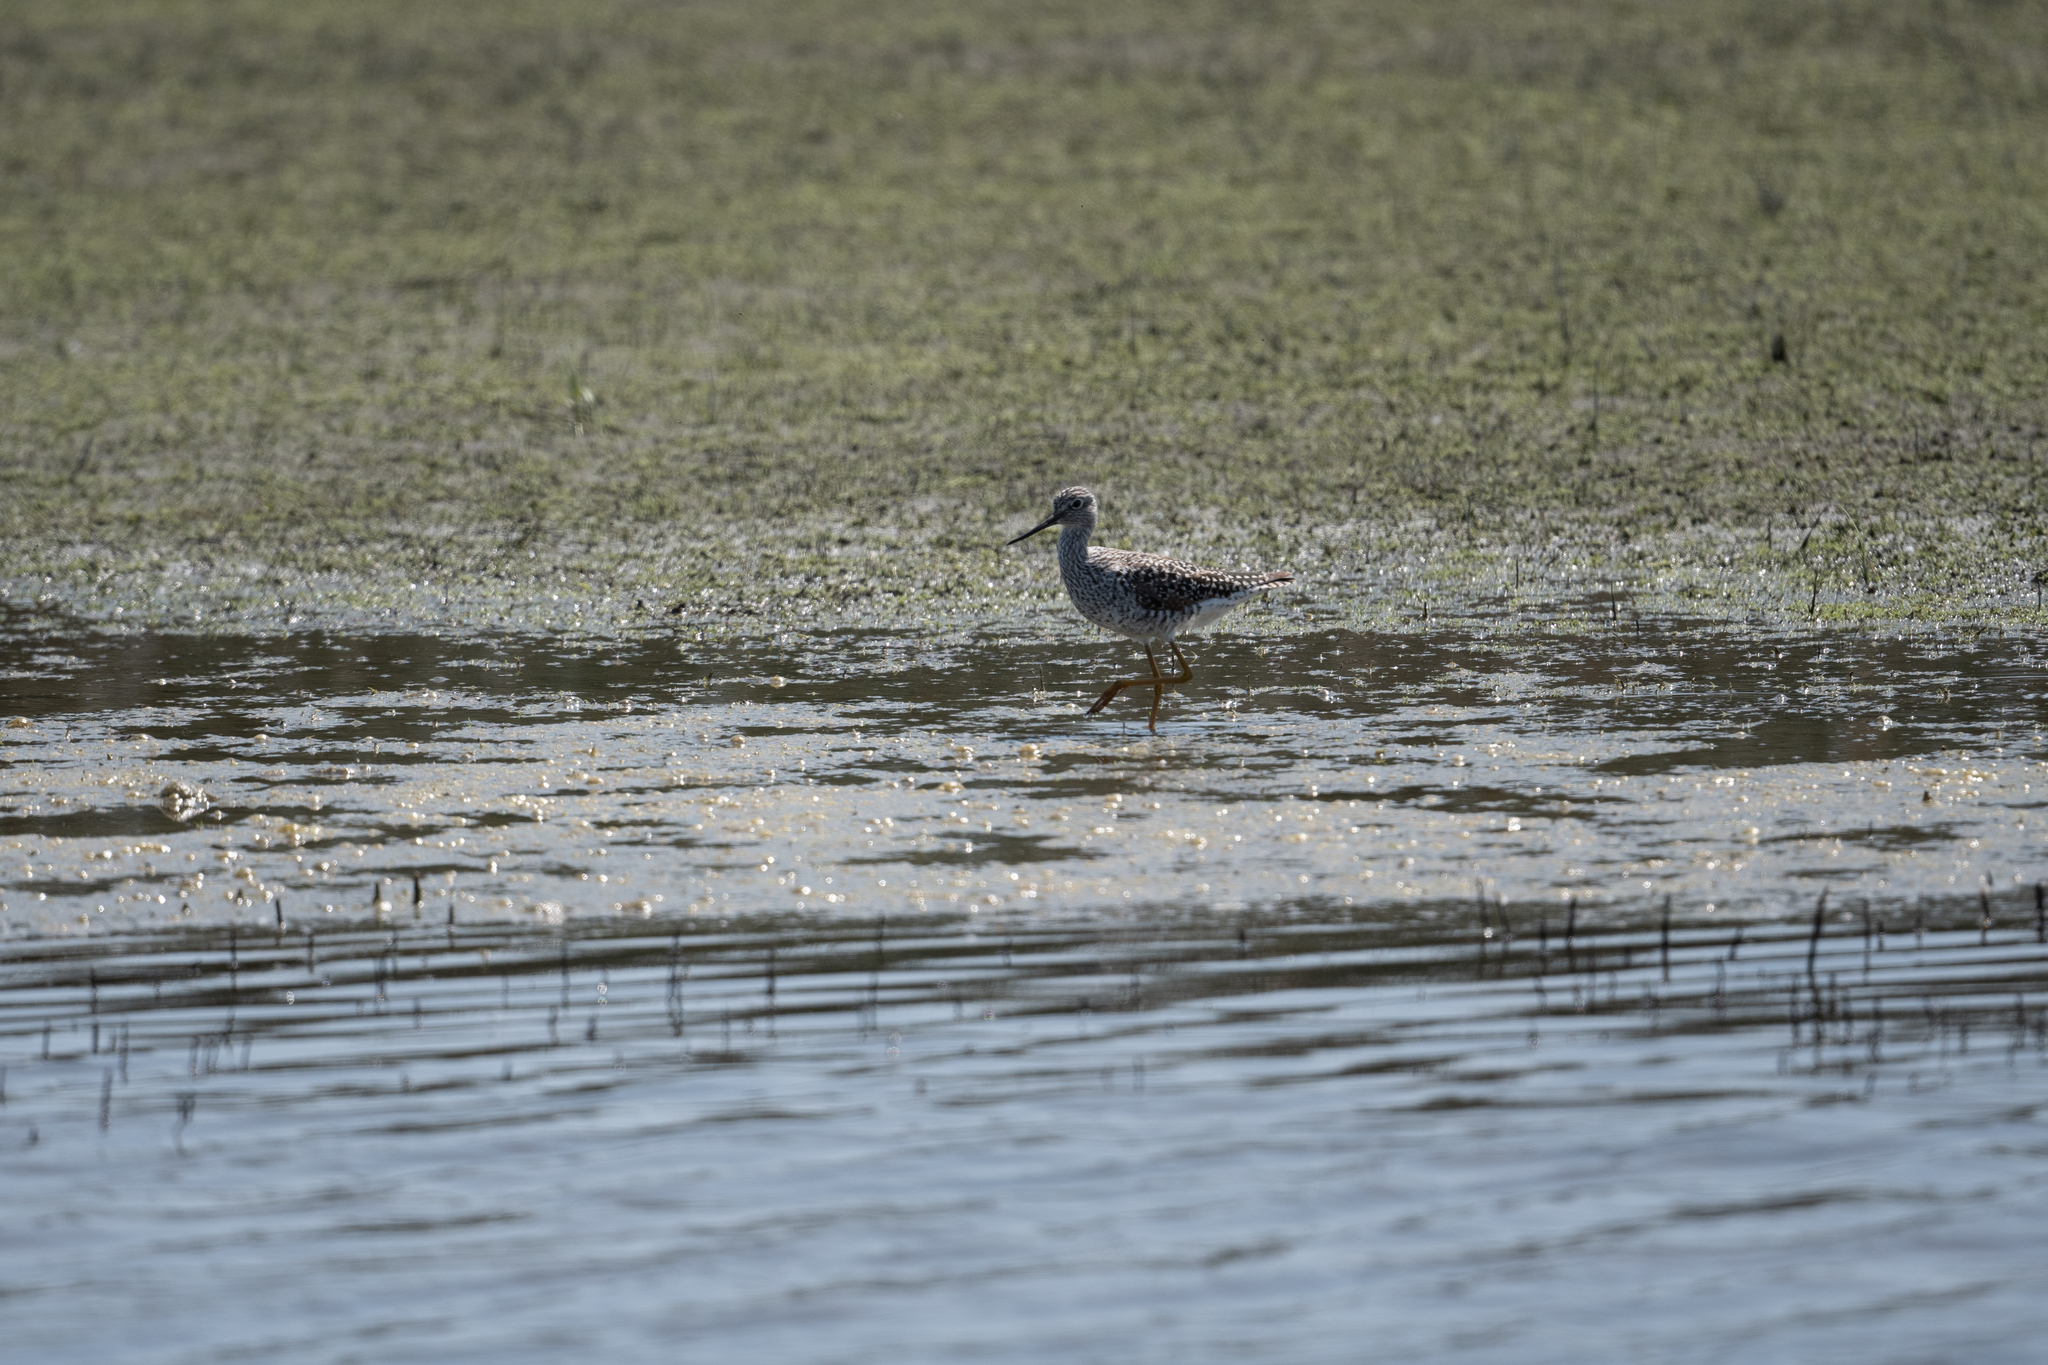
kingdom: Animalia
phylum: Chordata
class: Aves
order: Charadriiformes
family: Scolopacidae
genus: Tringa
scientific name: Tringa melanoleuca
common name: Greater yellowlegs
